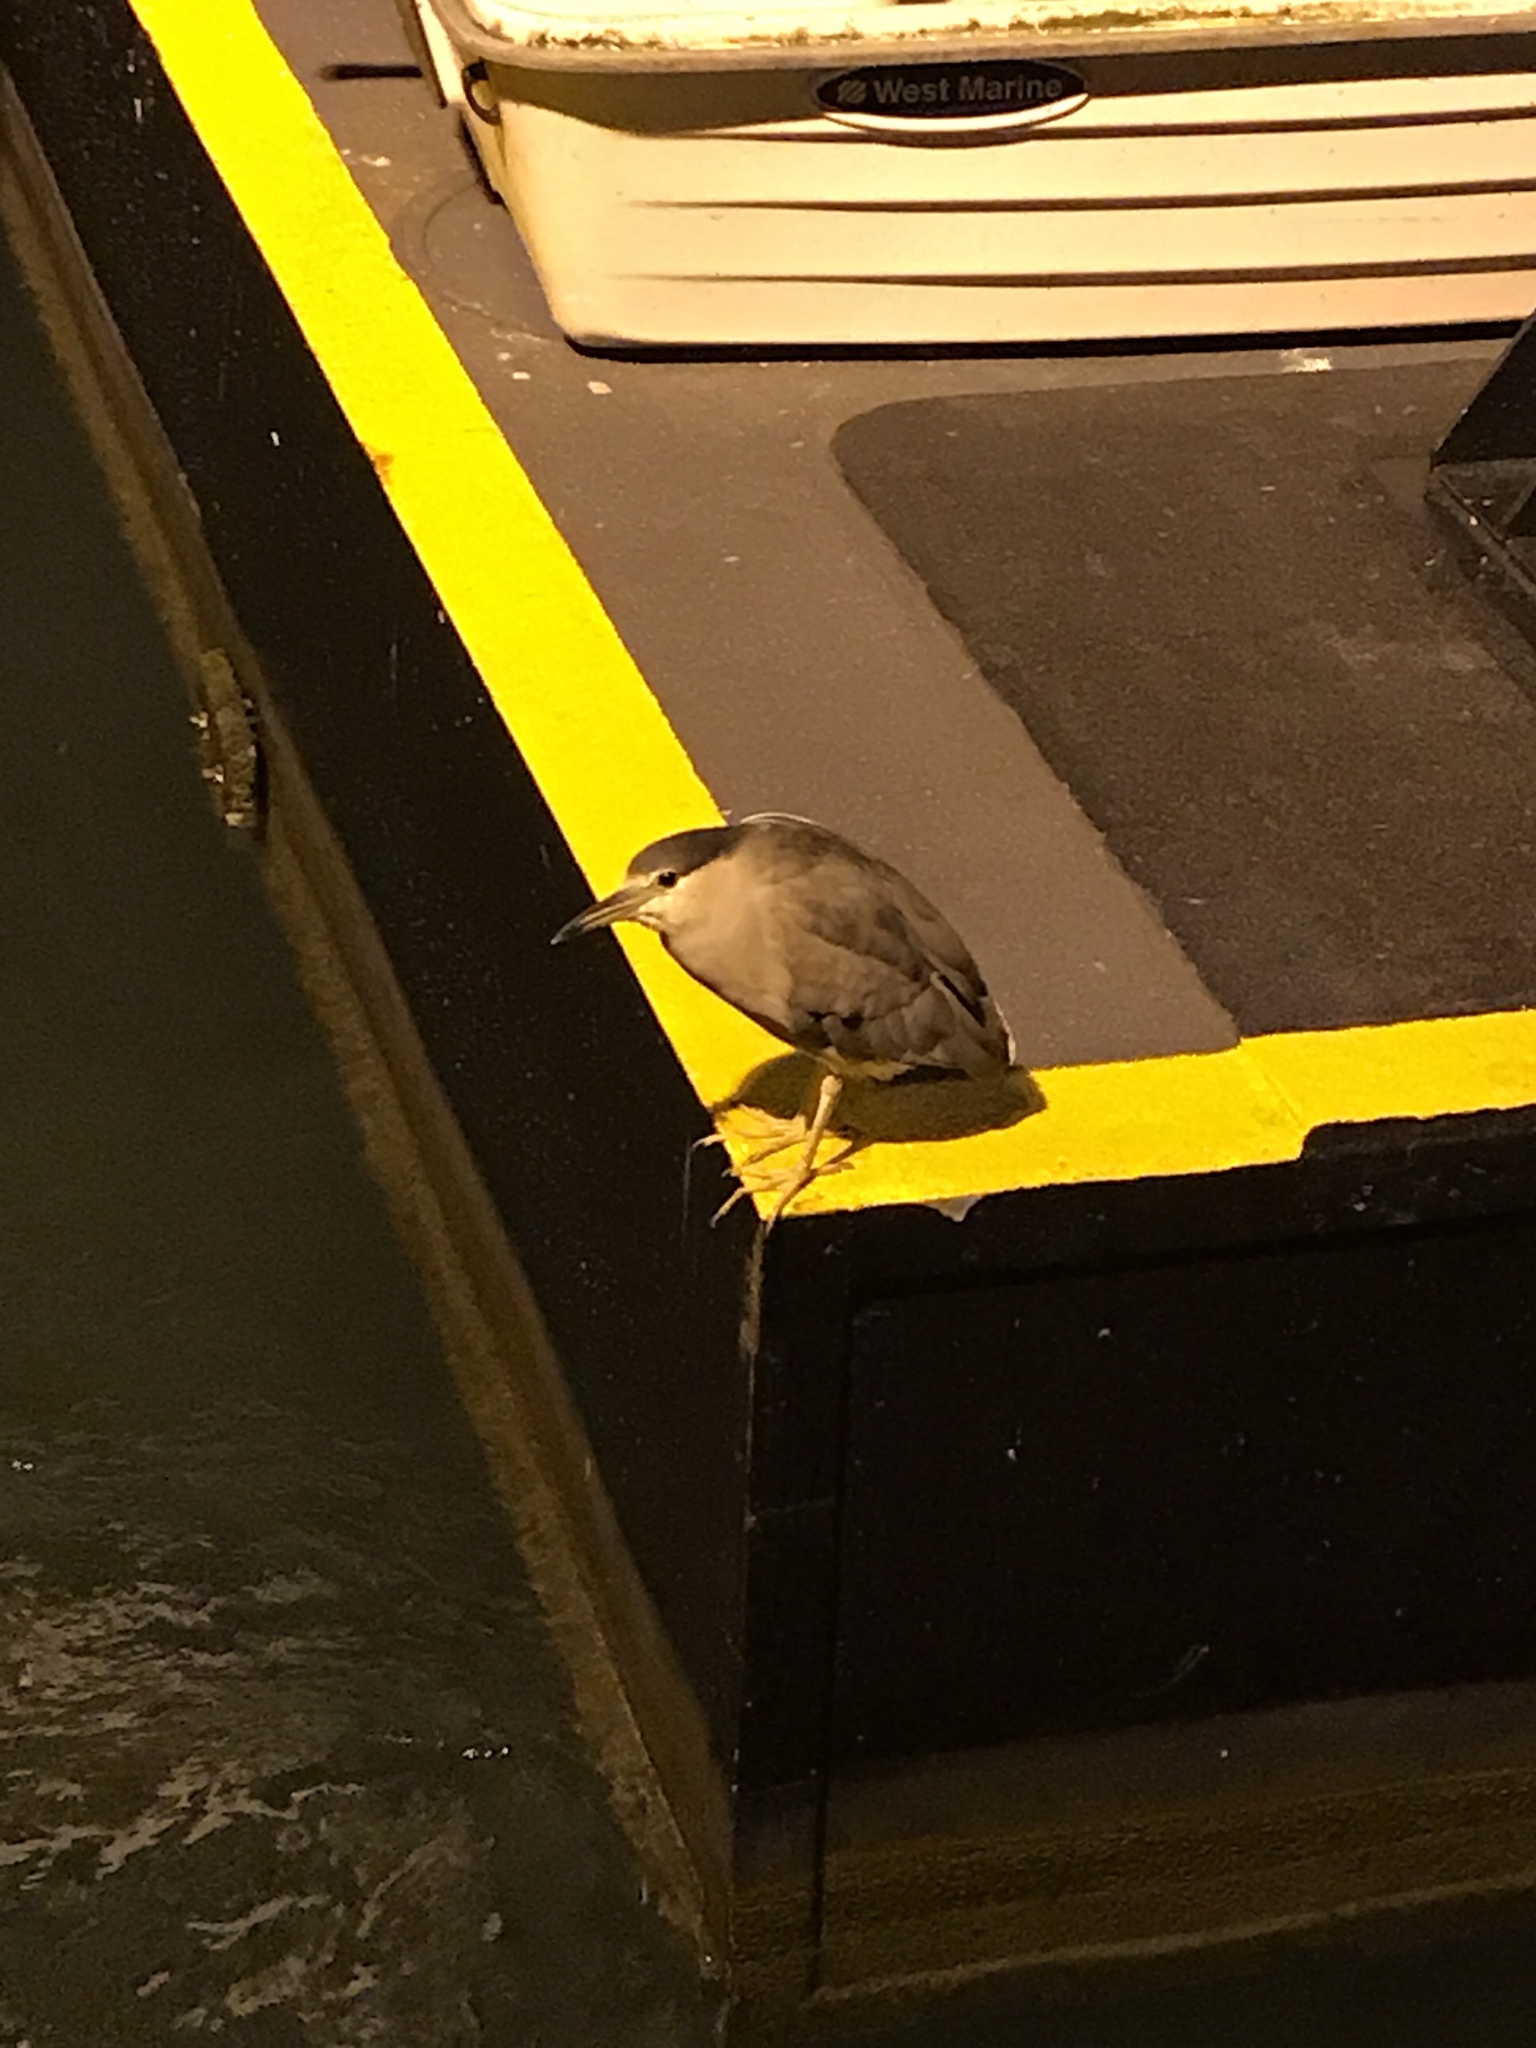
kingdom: Animalia
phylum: Chordata
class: Aves
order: Pelecaniformes
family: Ardeidae
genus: Nycticorax
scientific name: Nycticorax nycticorax
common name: Black-crowned night heron
